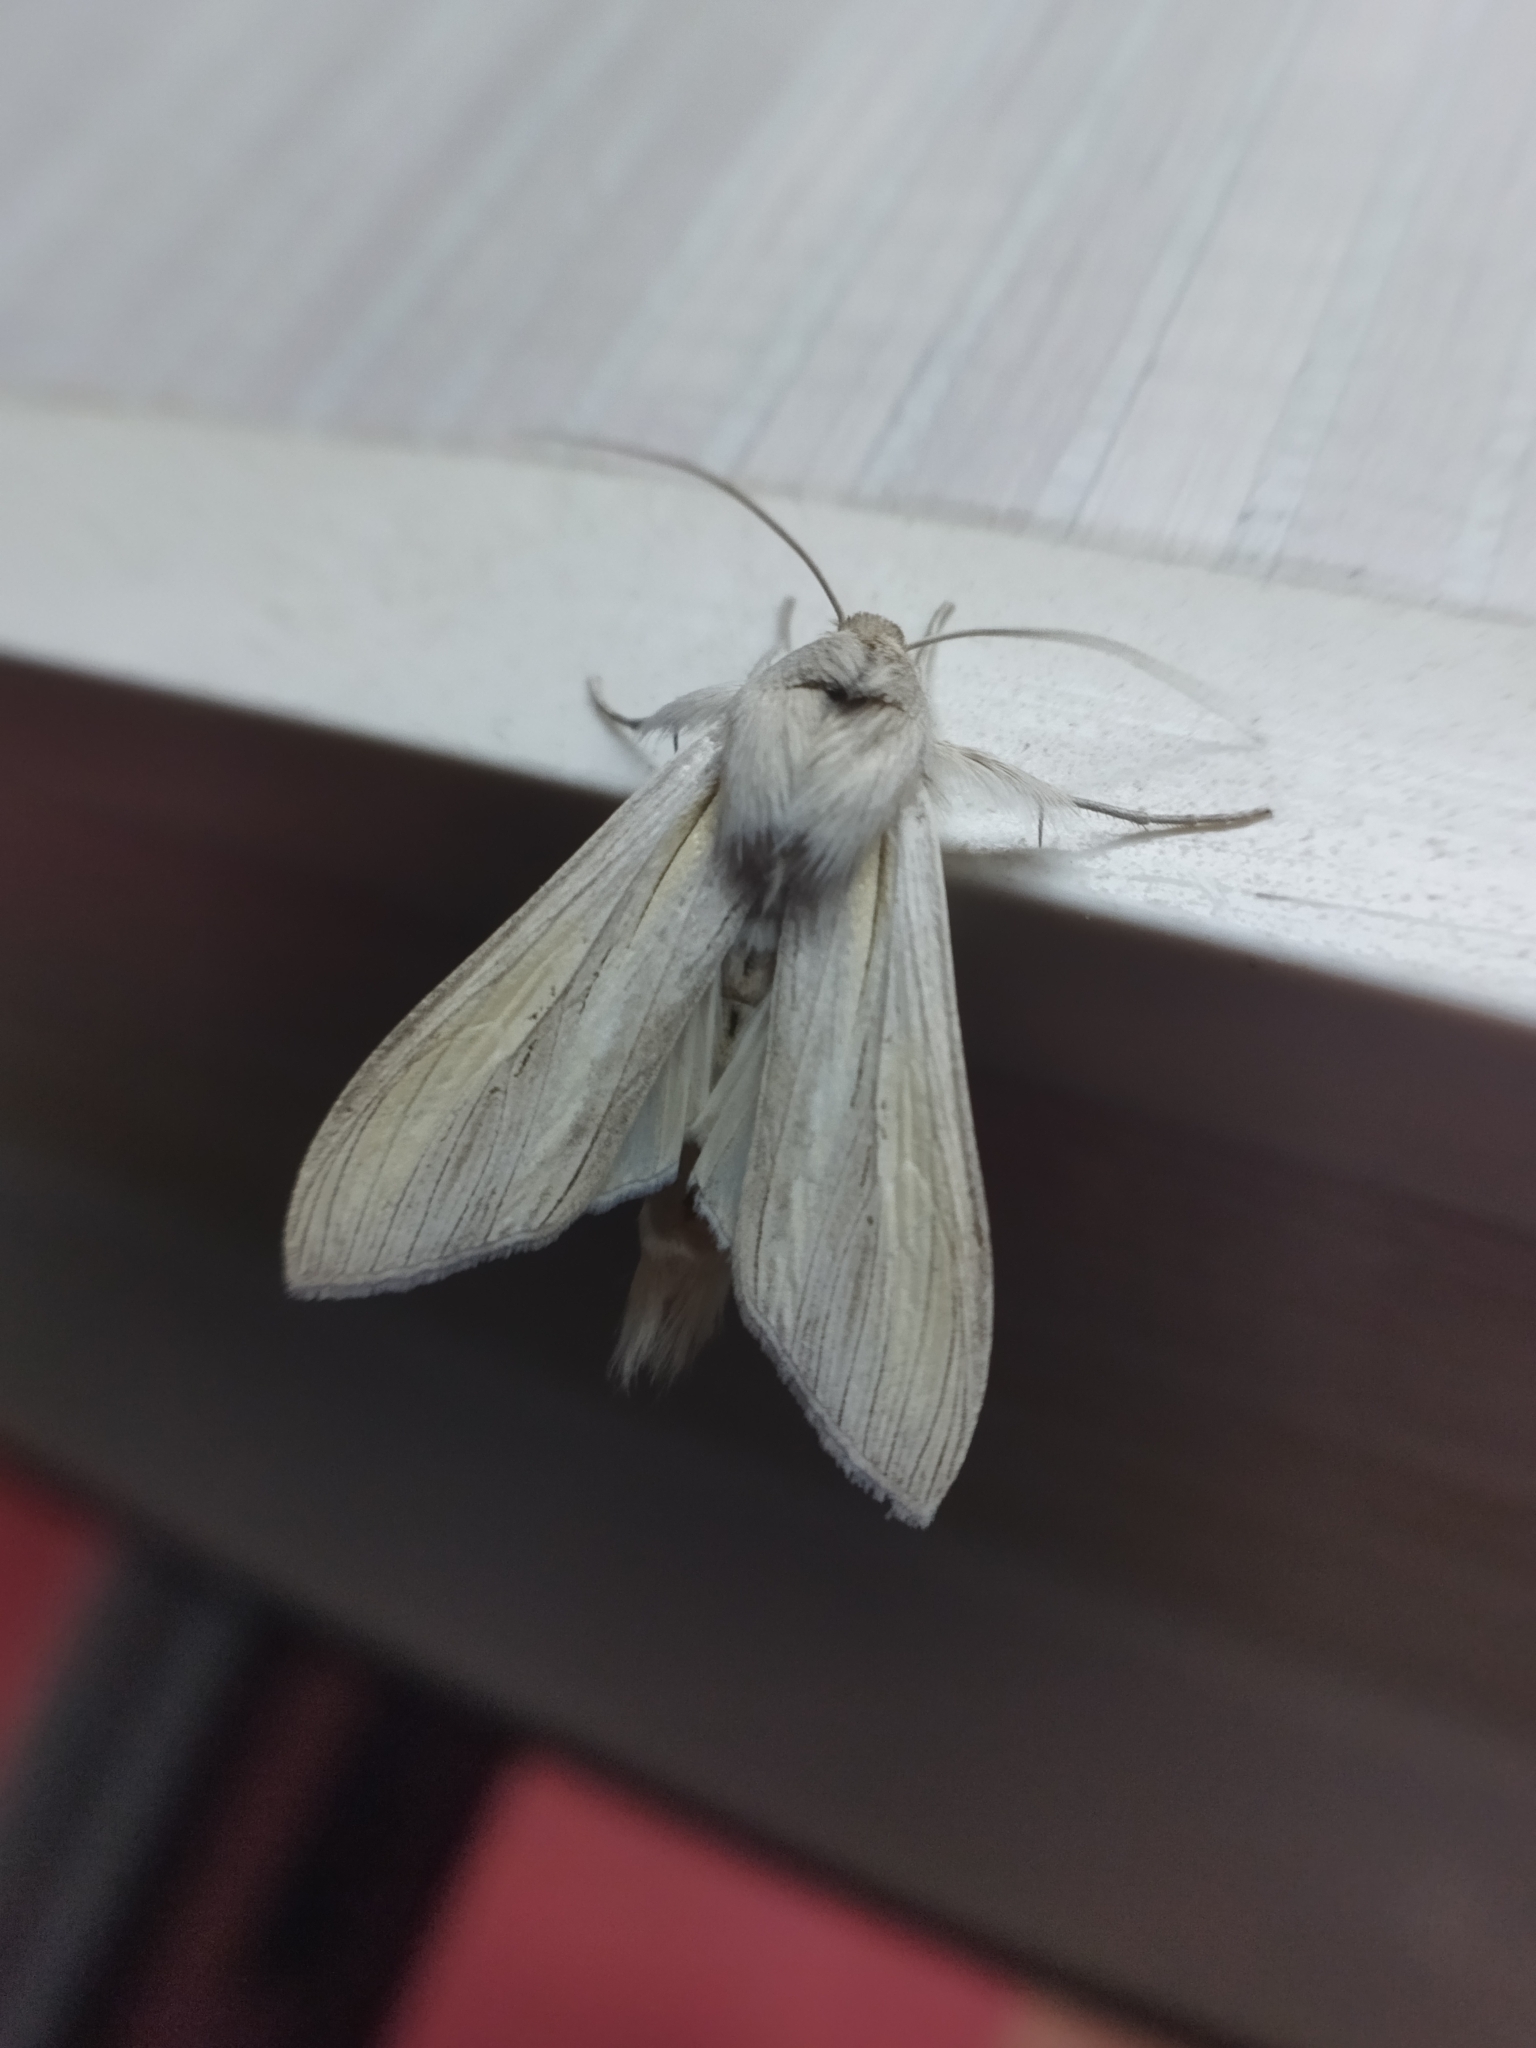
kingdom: Animalia
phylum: Arthropoda
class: Insecta
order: Lepidoptera
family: Noctuidae
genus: Cucullia
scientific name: Cucullia biornata
